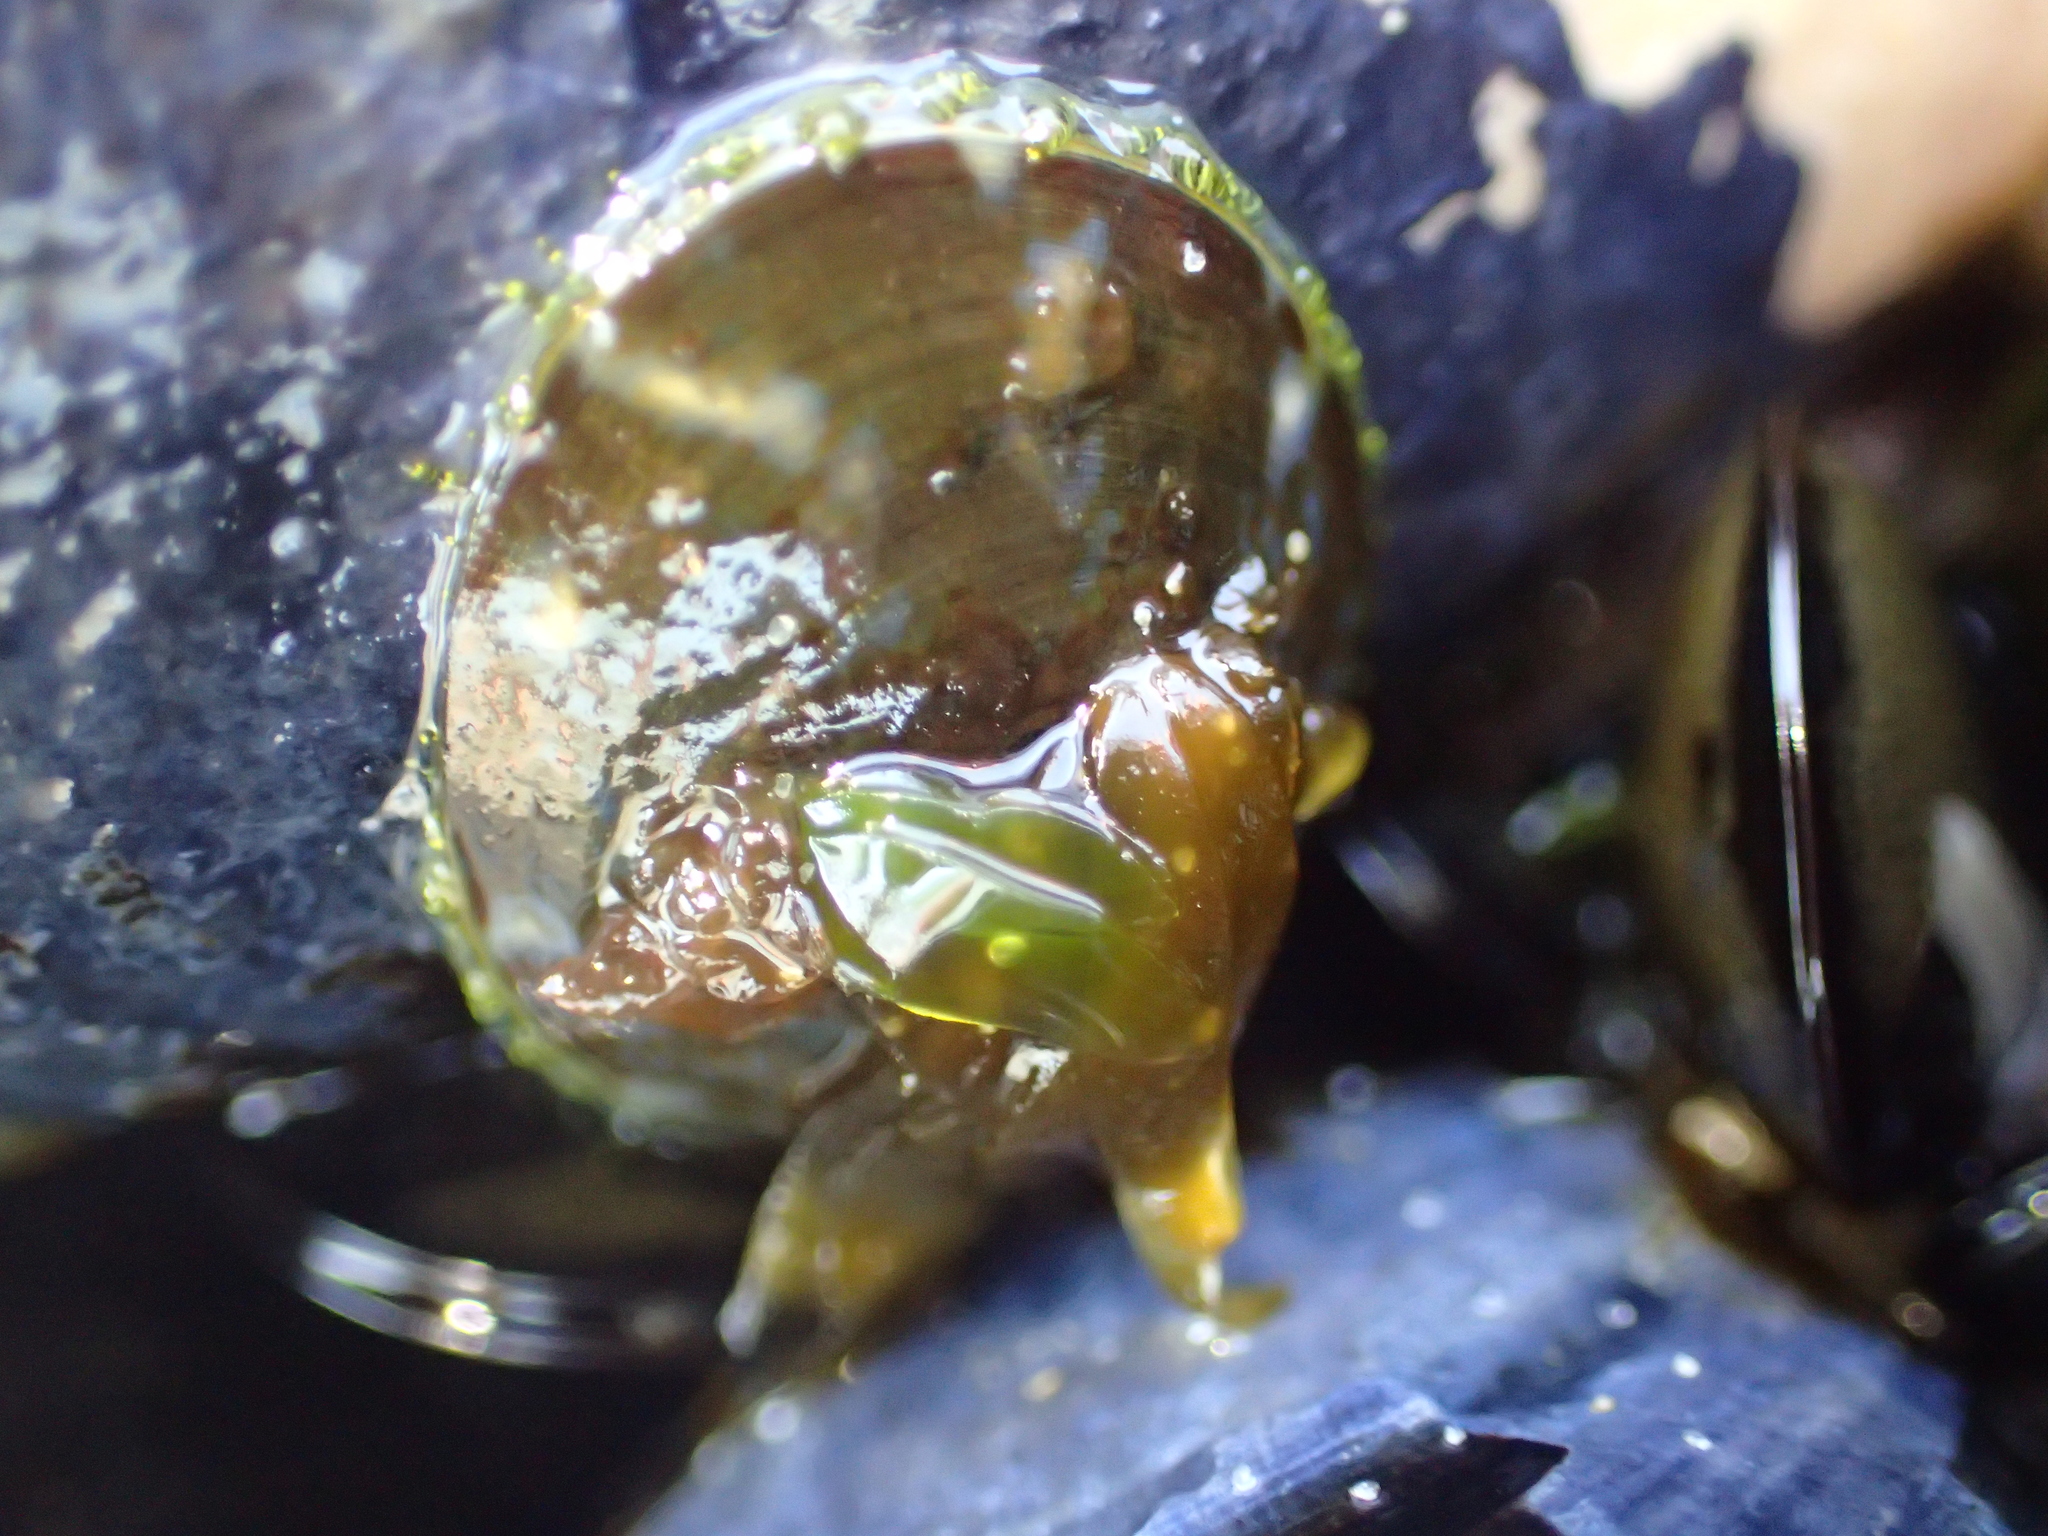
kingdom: Animalia
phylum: Mollusca
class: Gastropoda
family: Nacellidae
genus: Cellana
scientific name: Cellana radians
